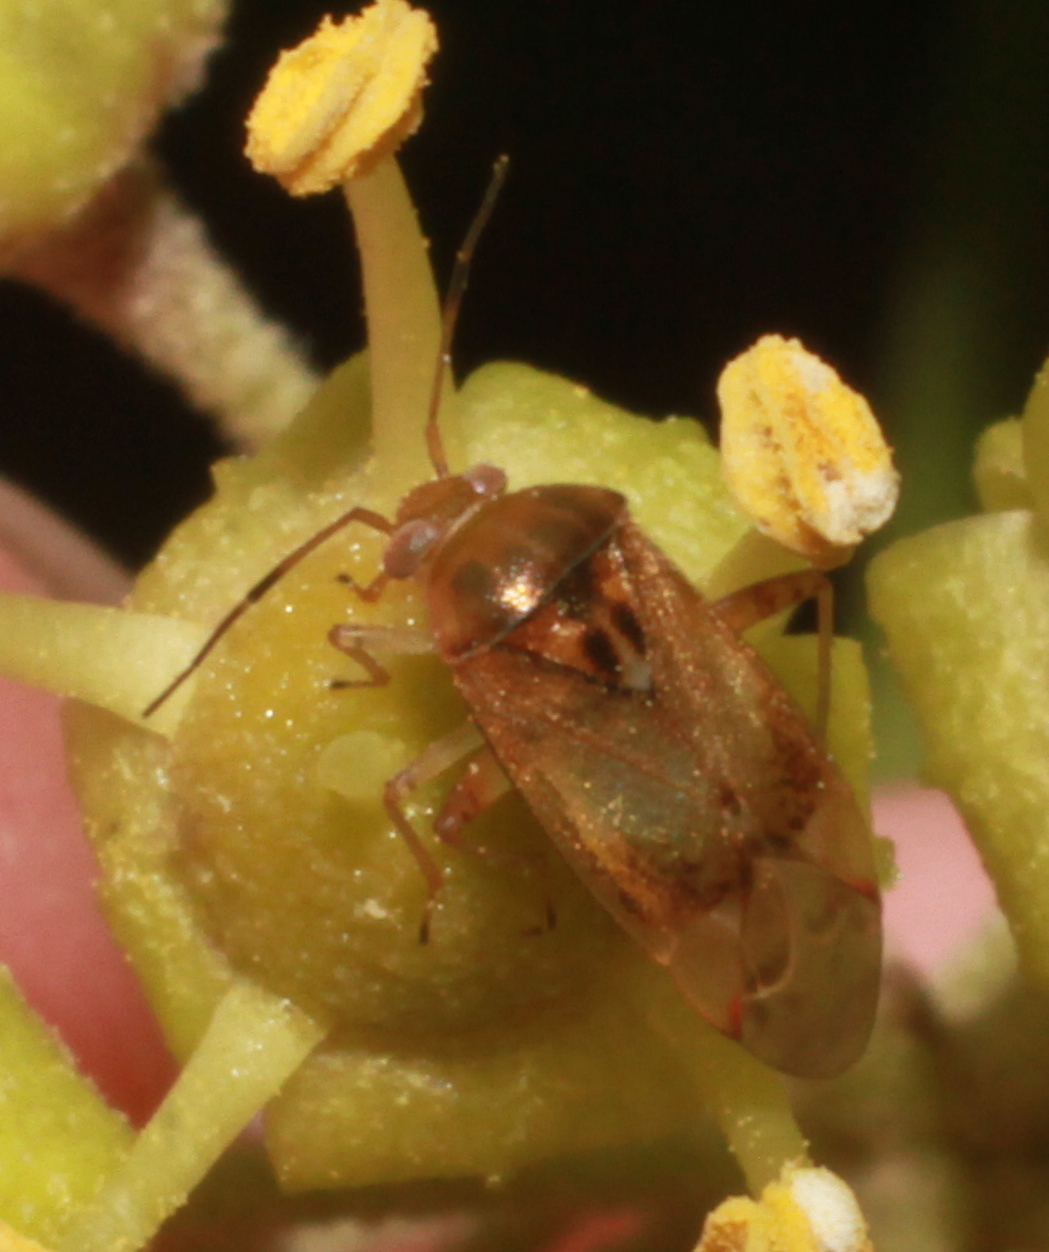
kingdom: Animalia
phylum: Arthropoda
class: Insecta
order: Hemiptera
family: Miridae
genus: Pinalitus
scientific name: Pinalitus cervinus
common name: Plant bug
